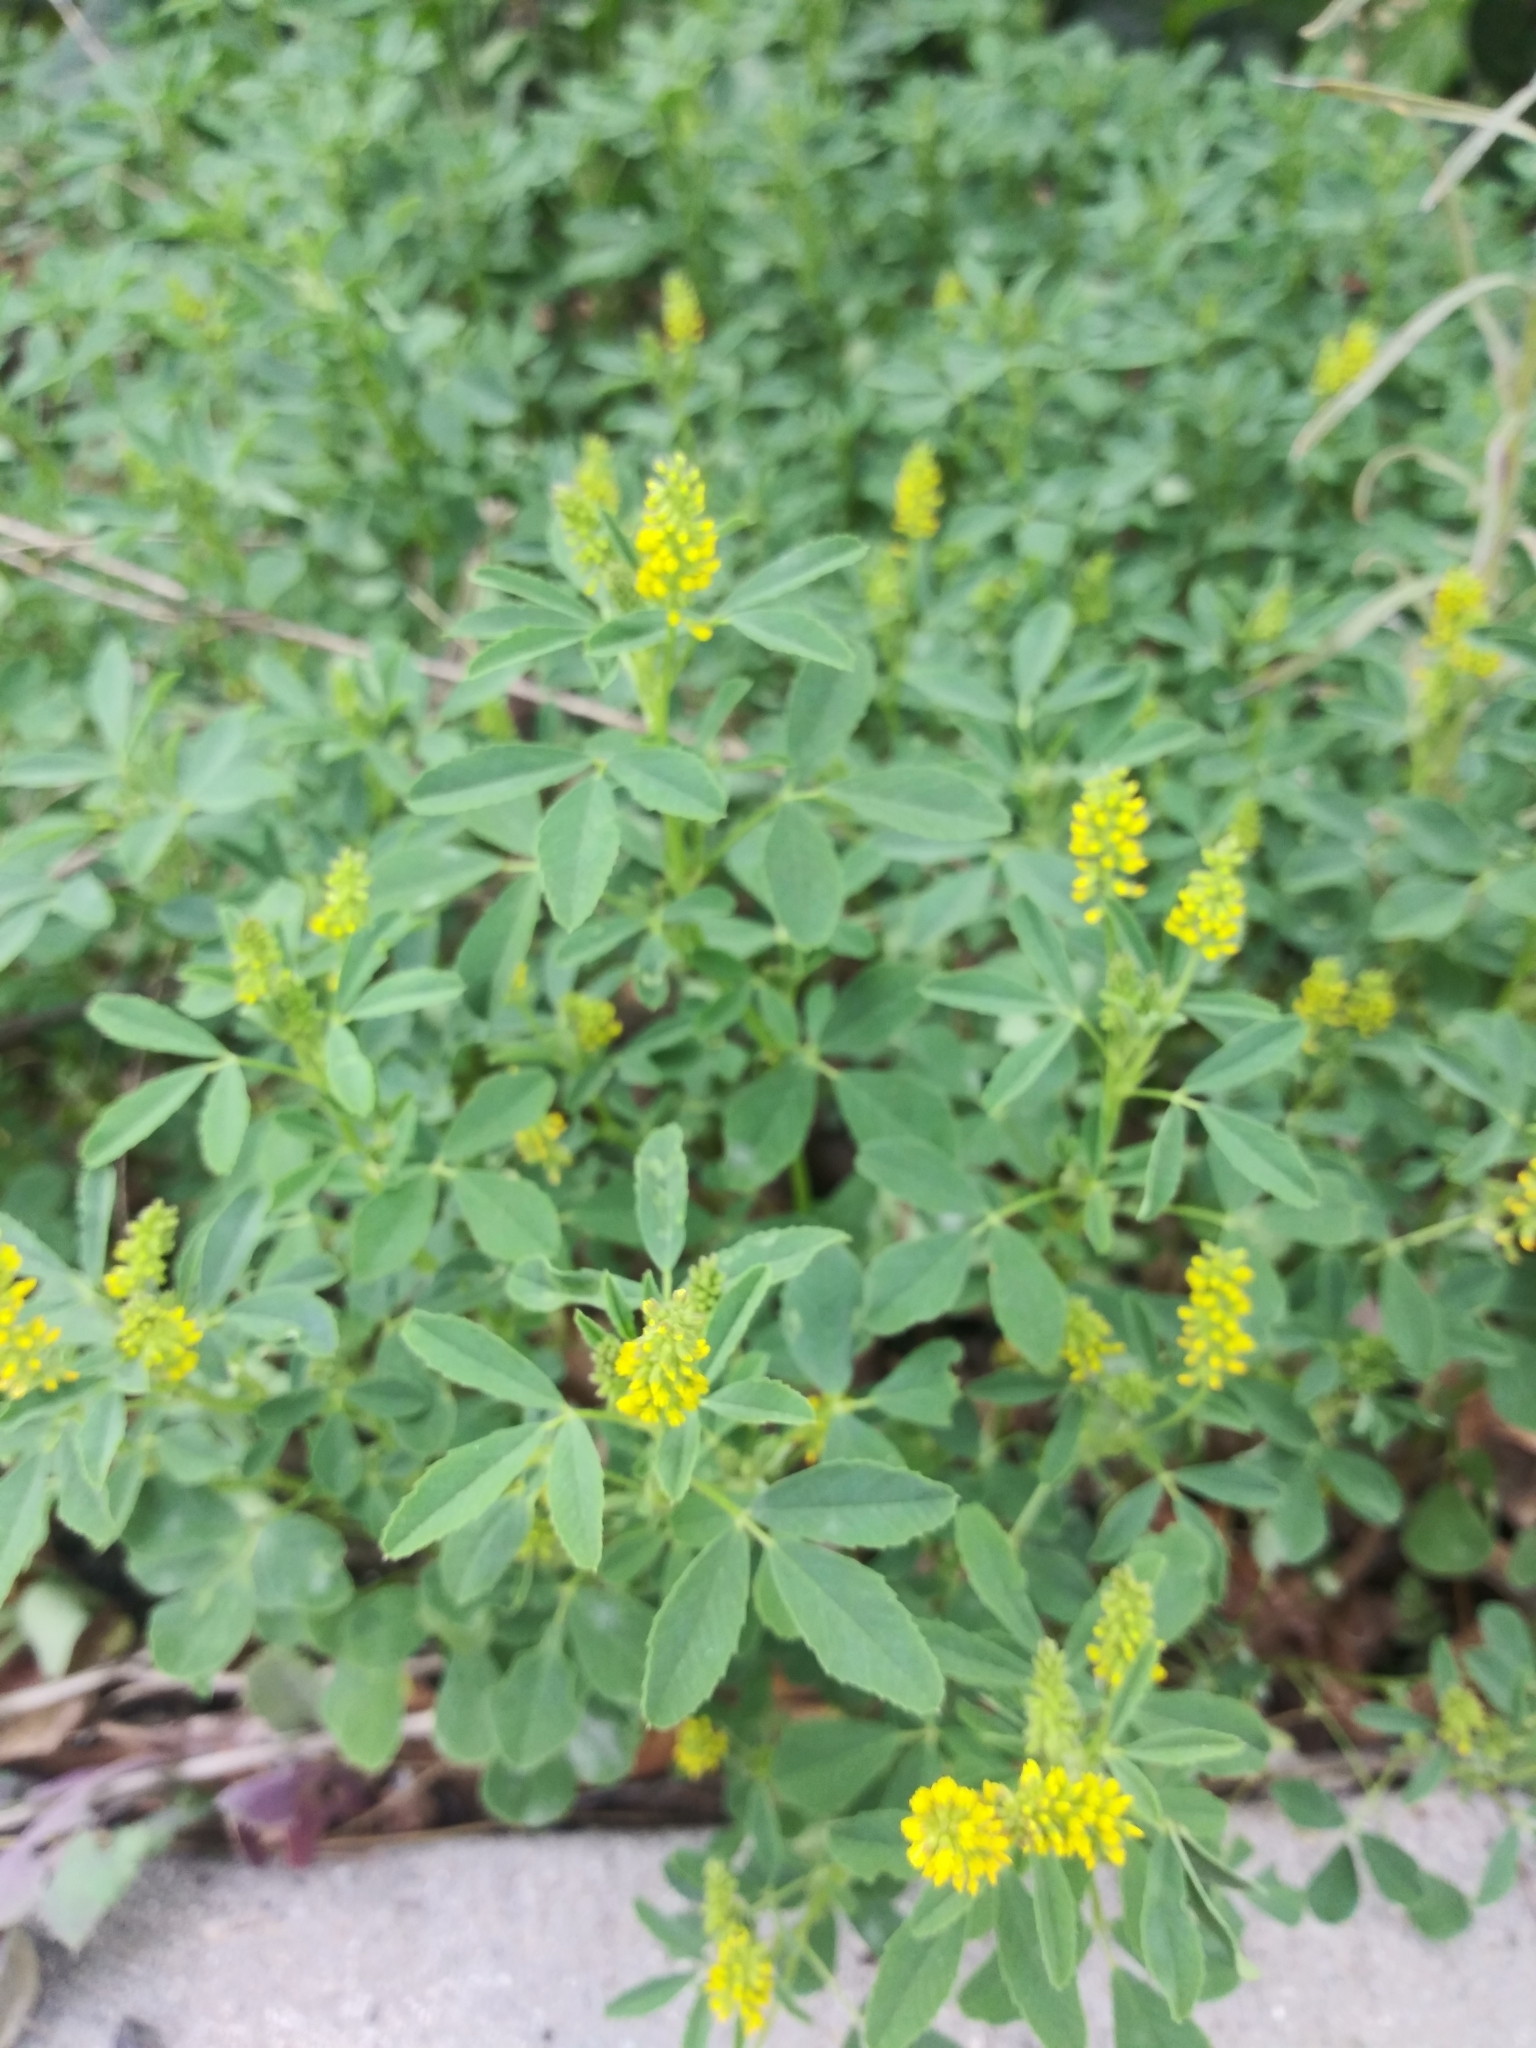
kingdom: Plantae
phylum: Tracheophyta
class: Magnoliopsida
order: Fabales
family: Fabaceae
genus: Melilotus
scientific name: Melilotus indicus
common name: Small melilot
